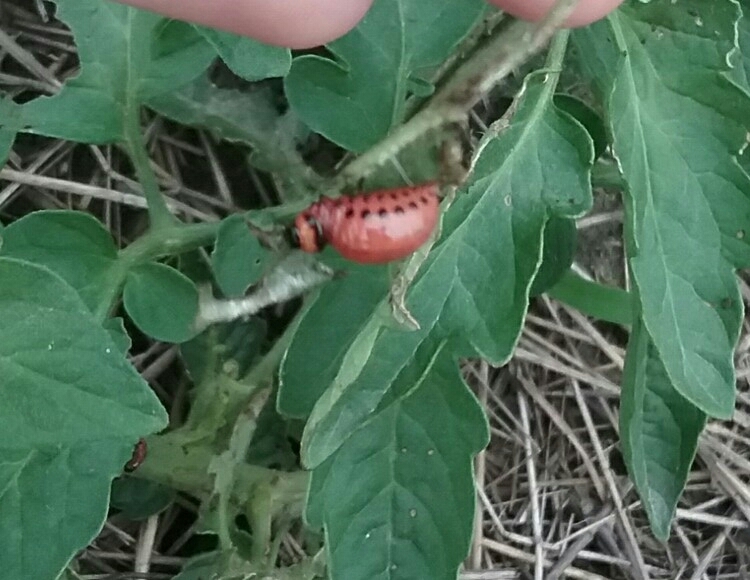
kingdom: Animalia
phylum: Arthropoda
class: Insecta
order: Coleoptera
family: Chrysomelidae
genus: Leptinotarsa
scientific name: Leptinotarsa decemlineata
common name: Colorado potato beetle
